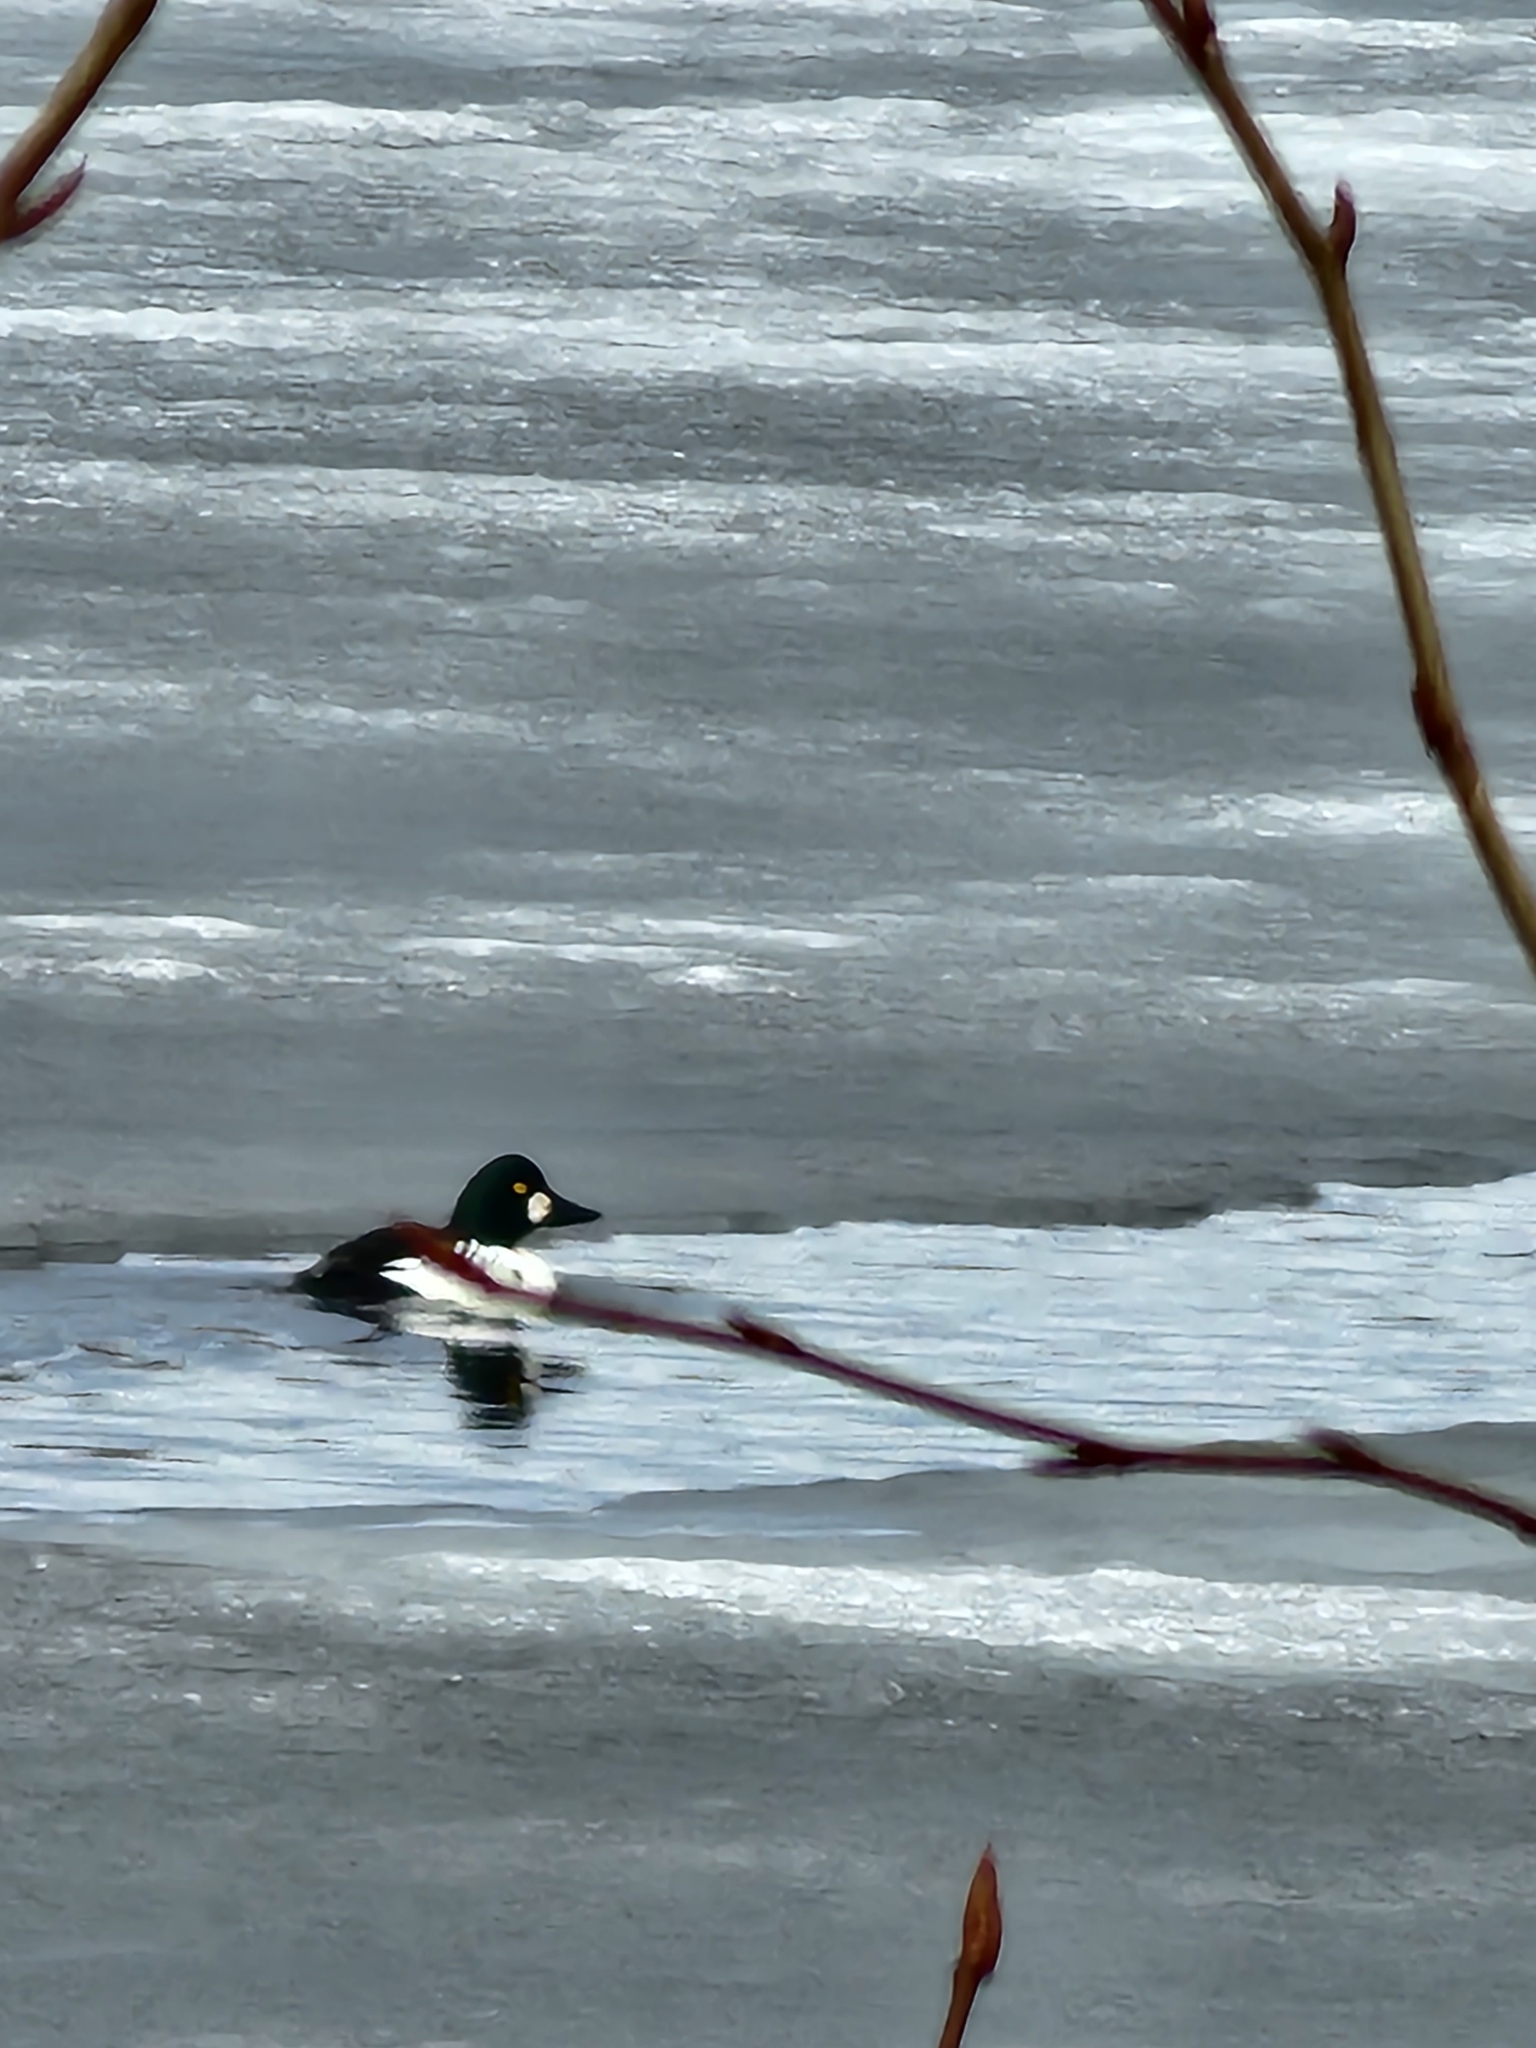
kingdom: Animalia
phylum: Chordata
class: Aves
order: Anseriformes
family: Anatidae
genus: Bucephala
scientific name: Bucephala clangula
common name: Common goldeneye
